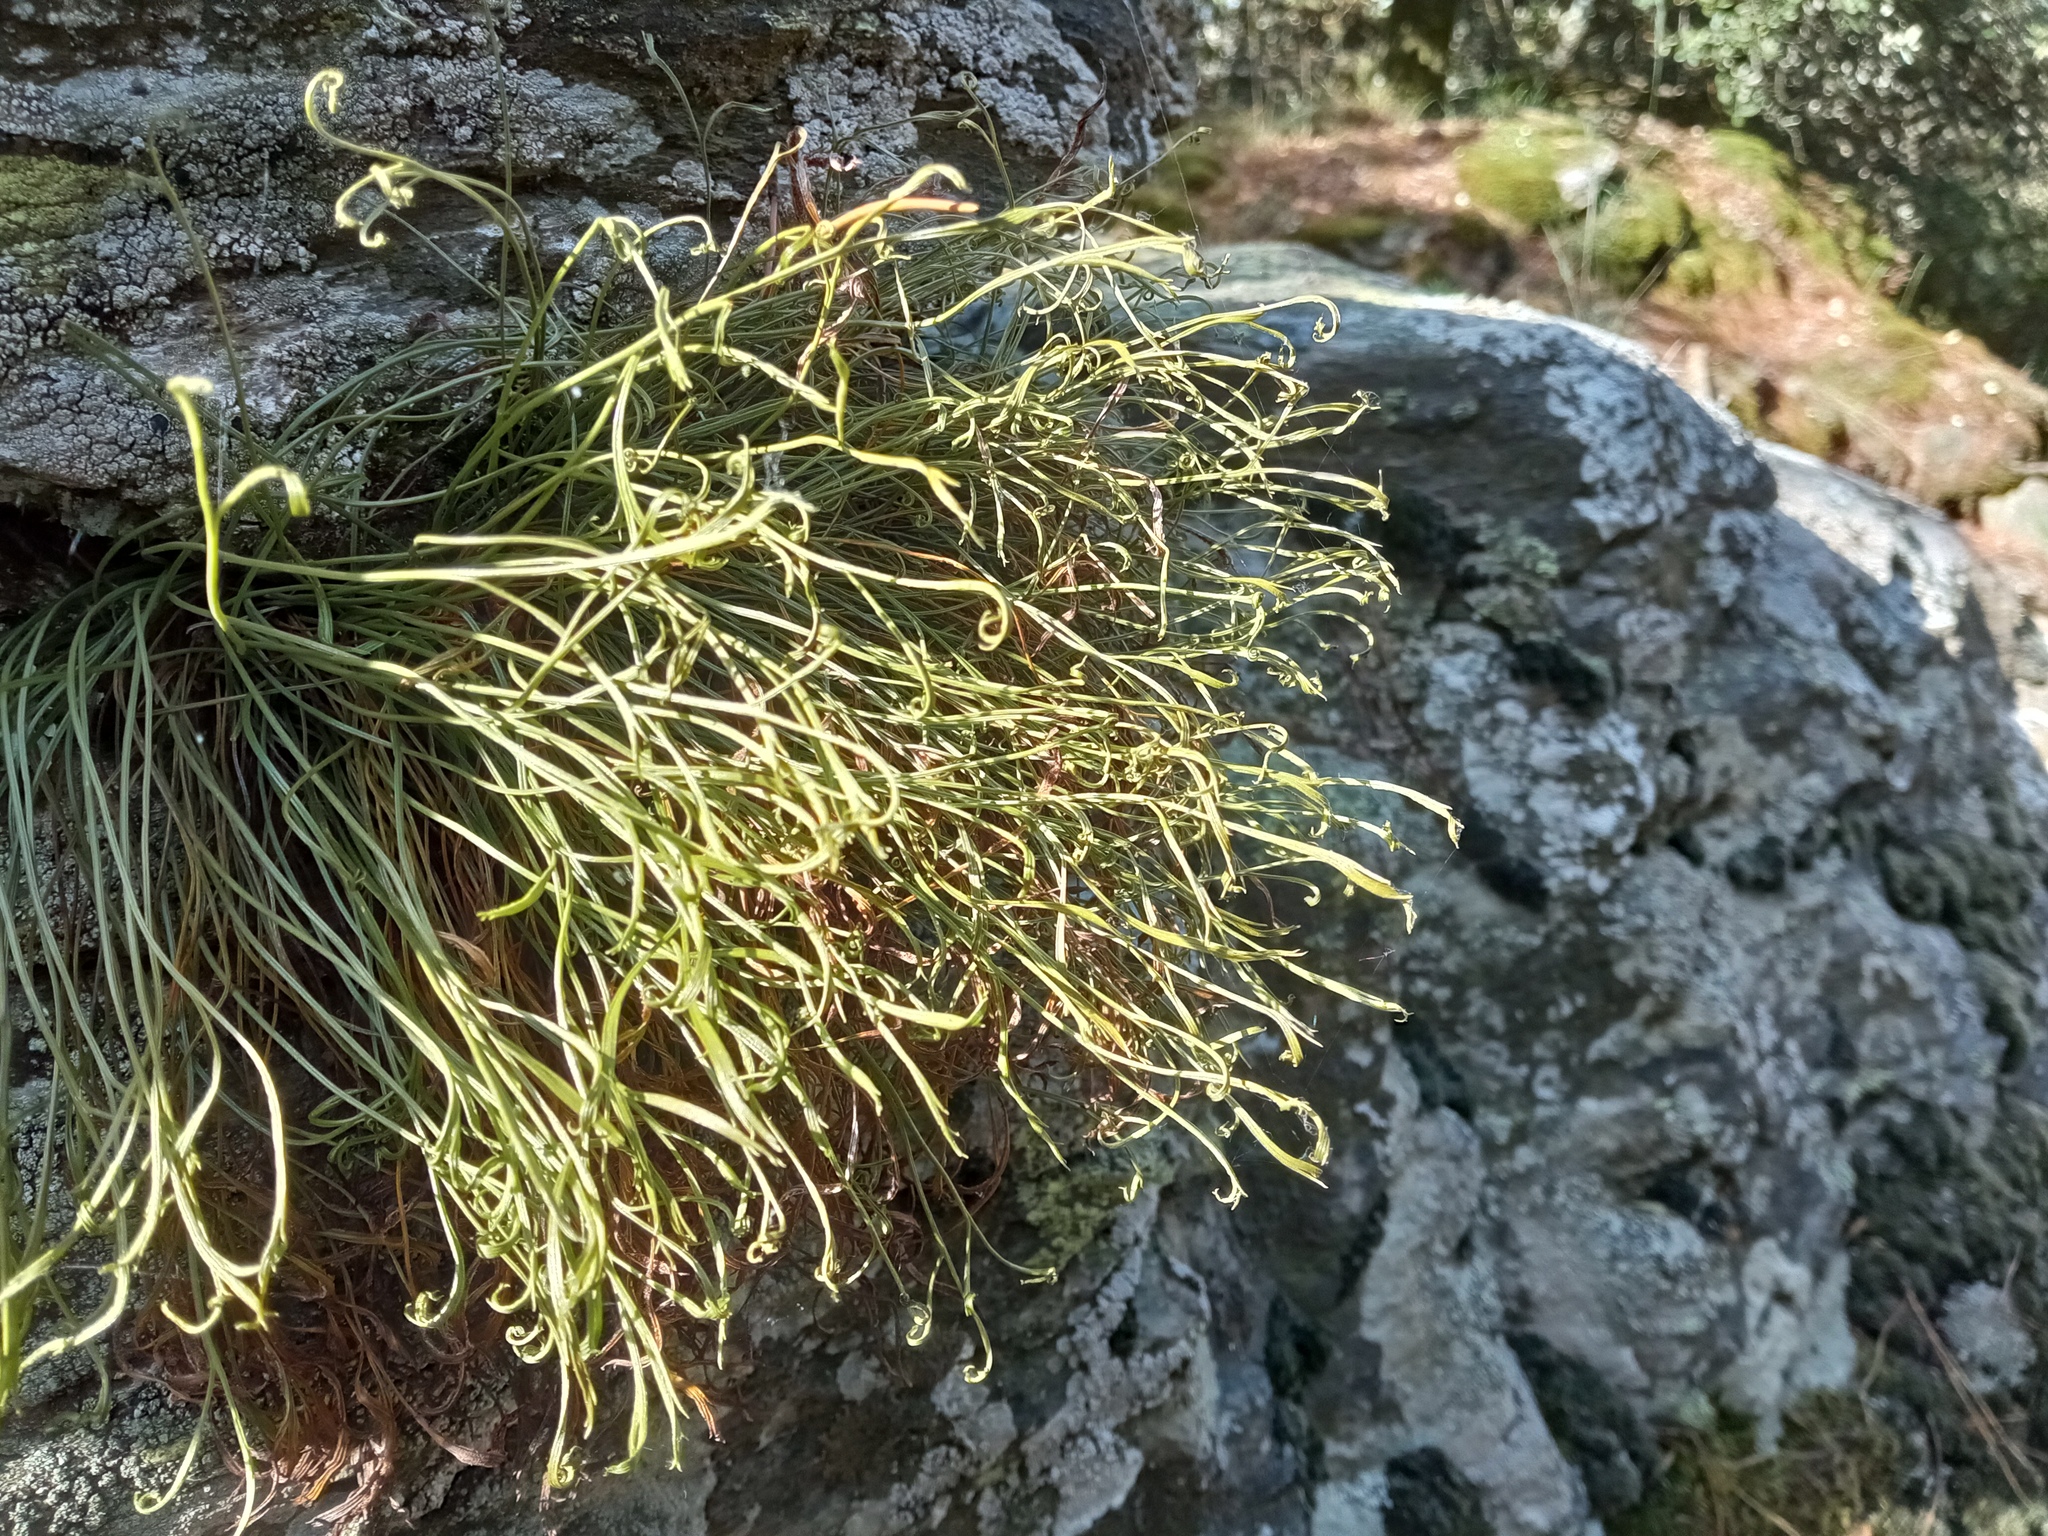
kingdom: Plantae
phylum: Tracheophyta
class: Polypodiopsida
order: Polypodiales
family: Aspleniaceae
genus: Asplenium
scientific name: Asplenium septentrionale
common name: Forked spleenwort
